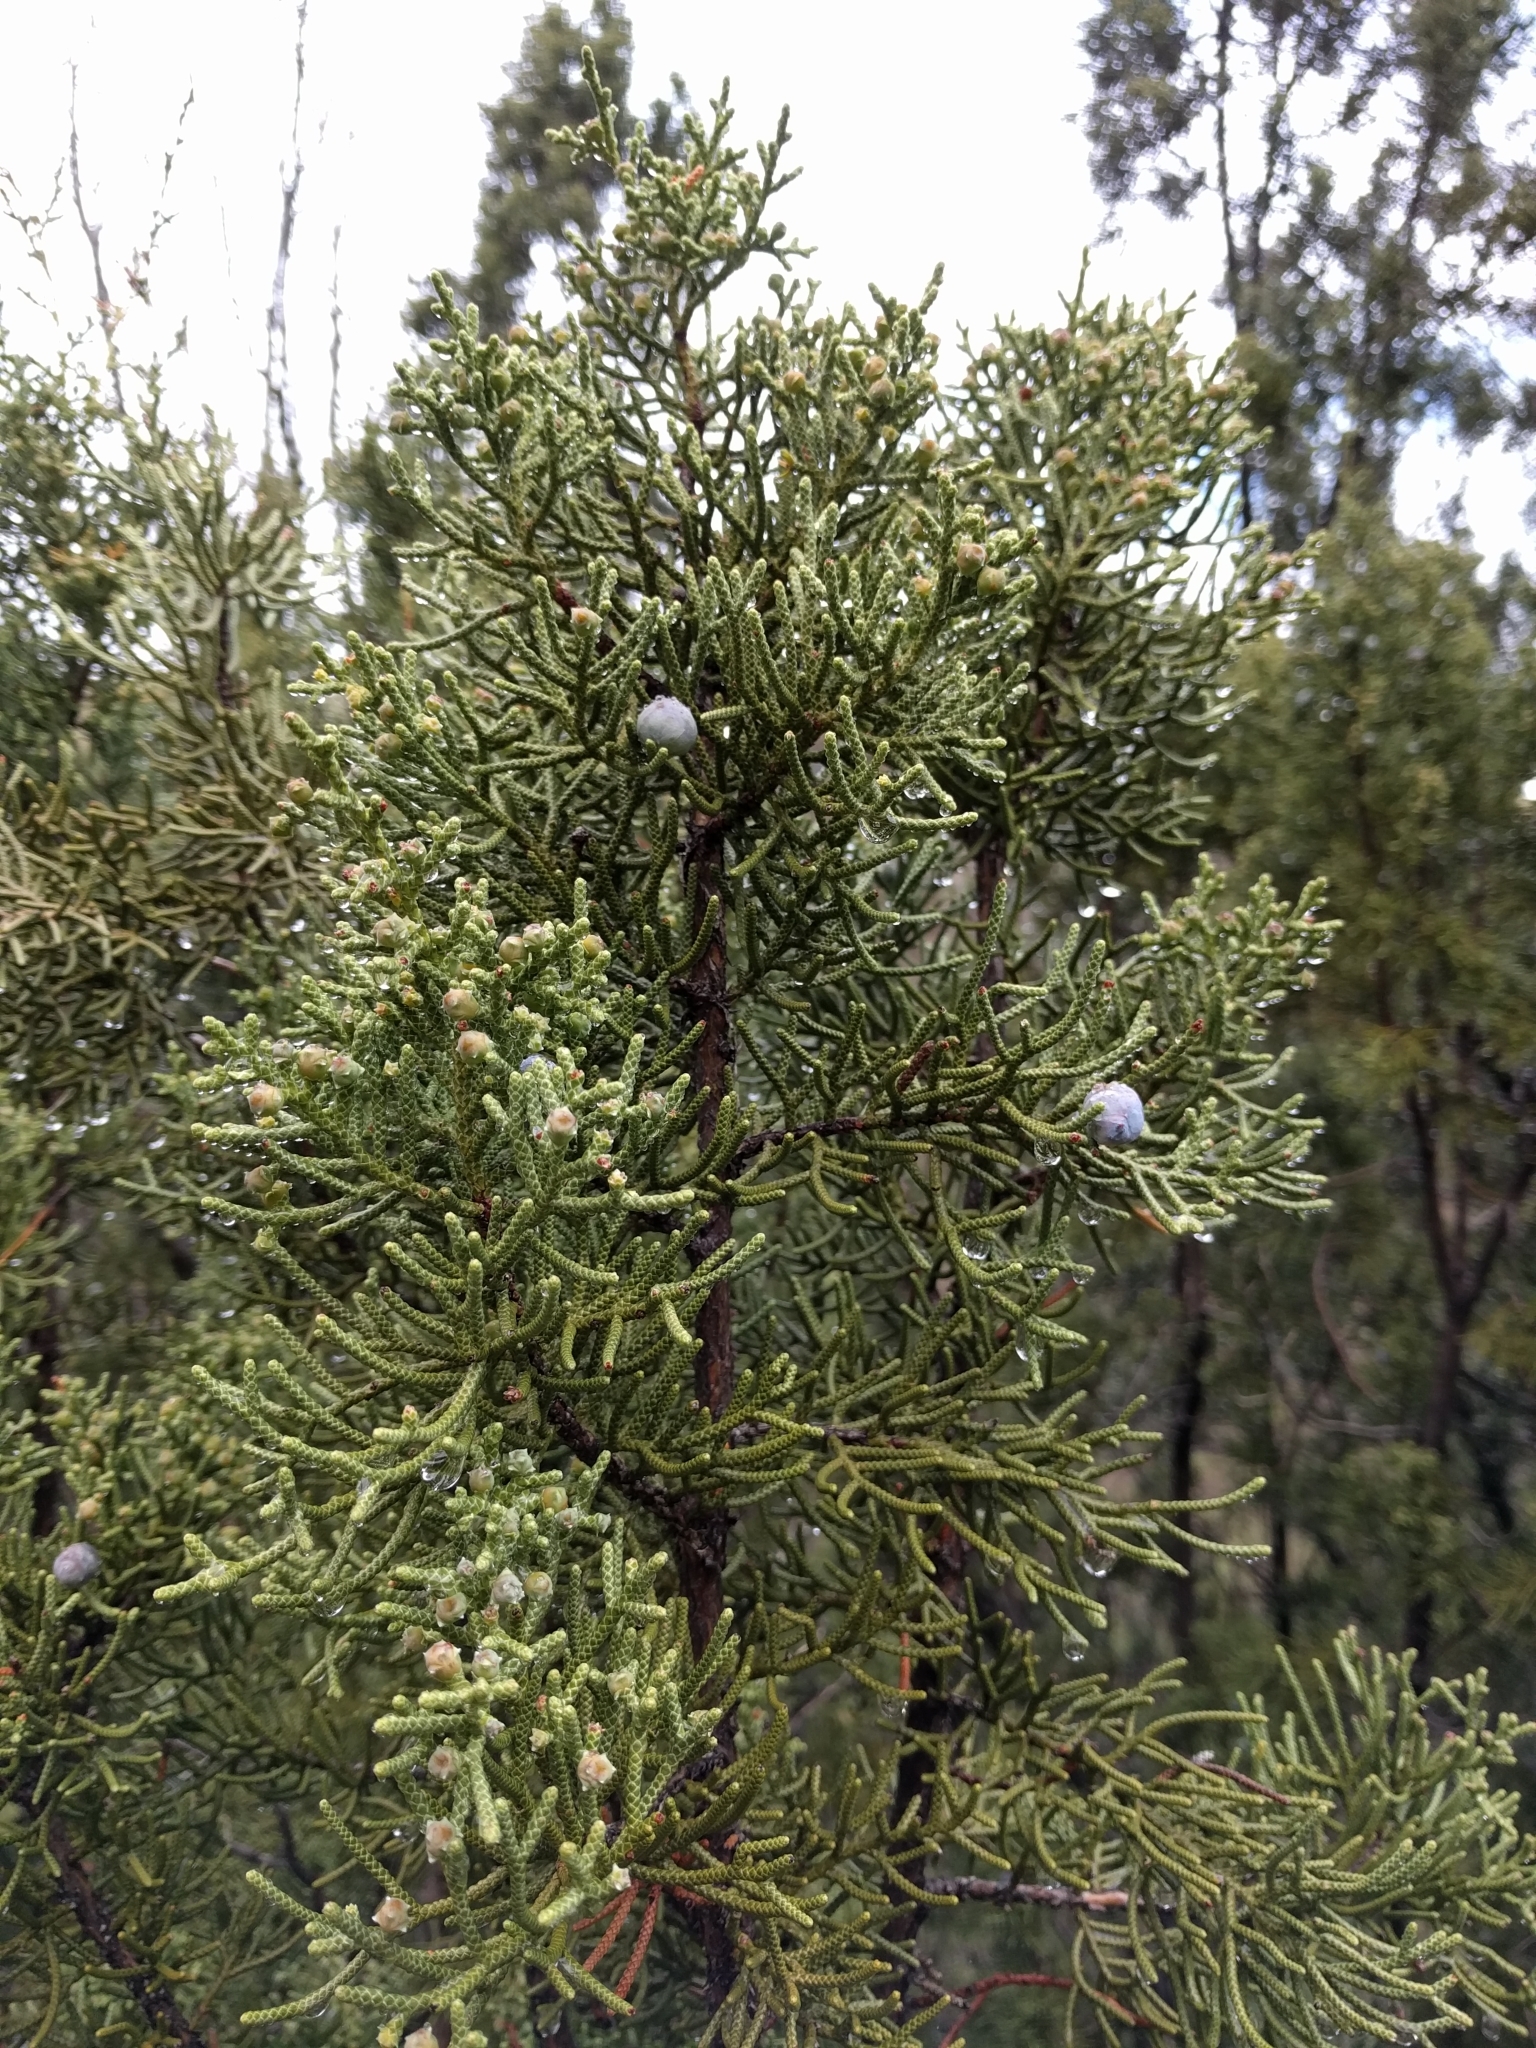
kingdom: Plantae
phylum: Tracheophyta
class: Pinopsida
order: Pinales
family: Cupressaceae
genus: Juniperus
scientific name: Juniperus californica
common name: California juniper
